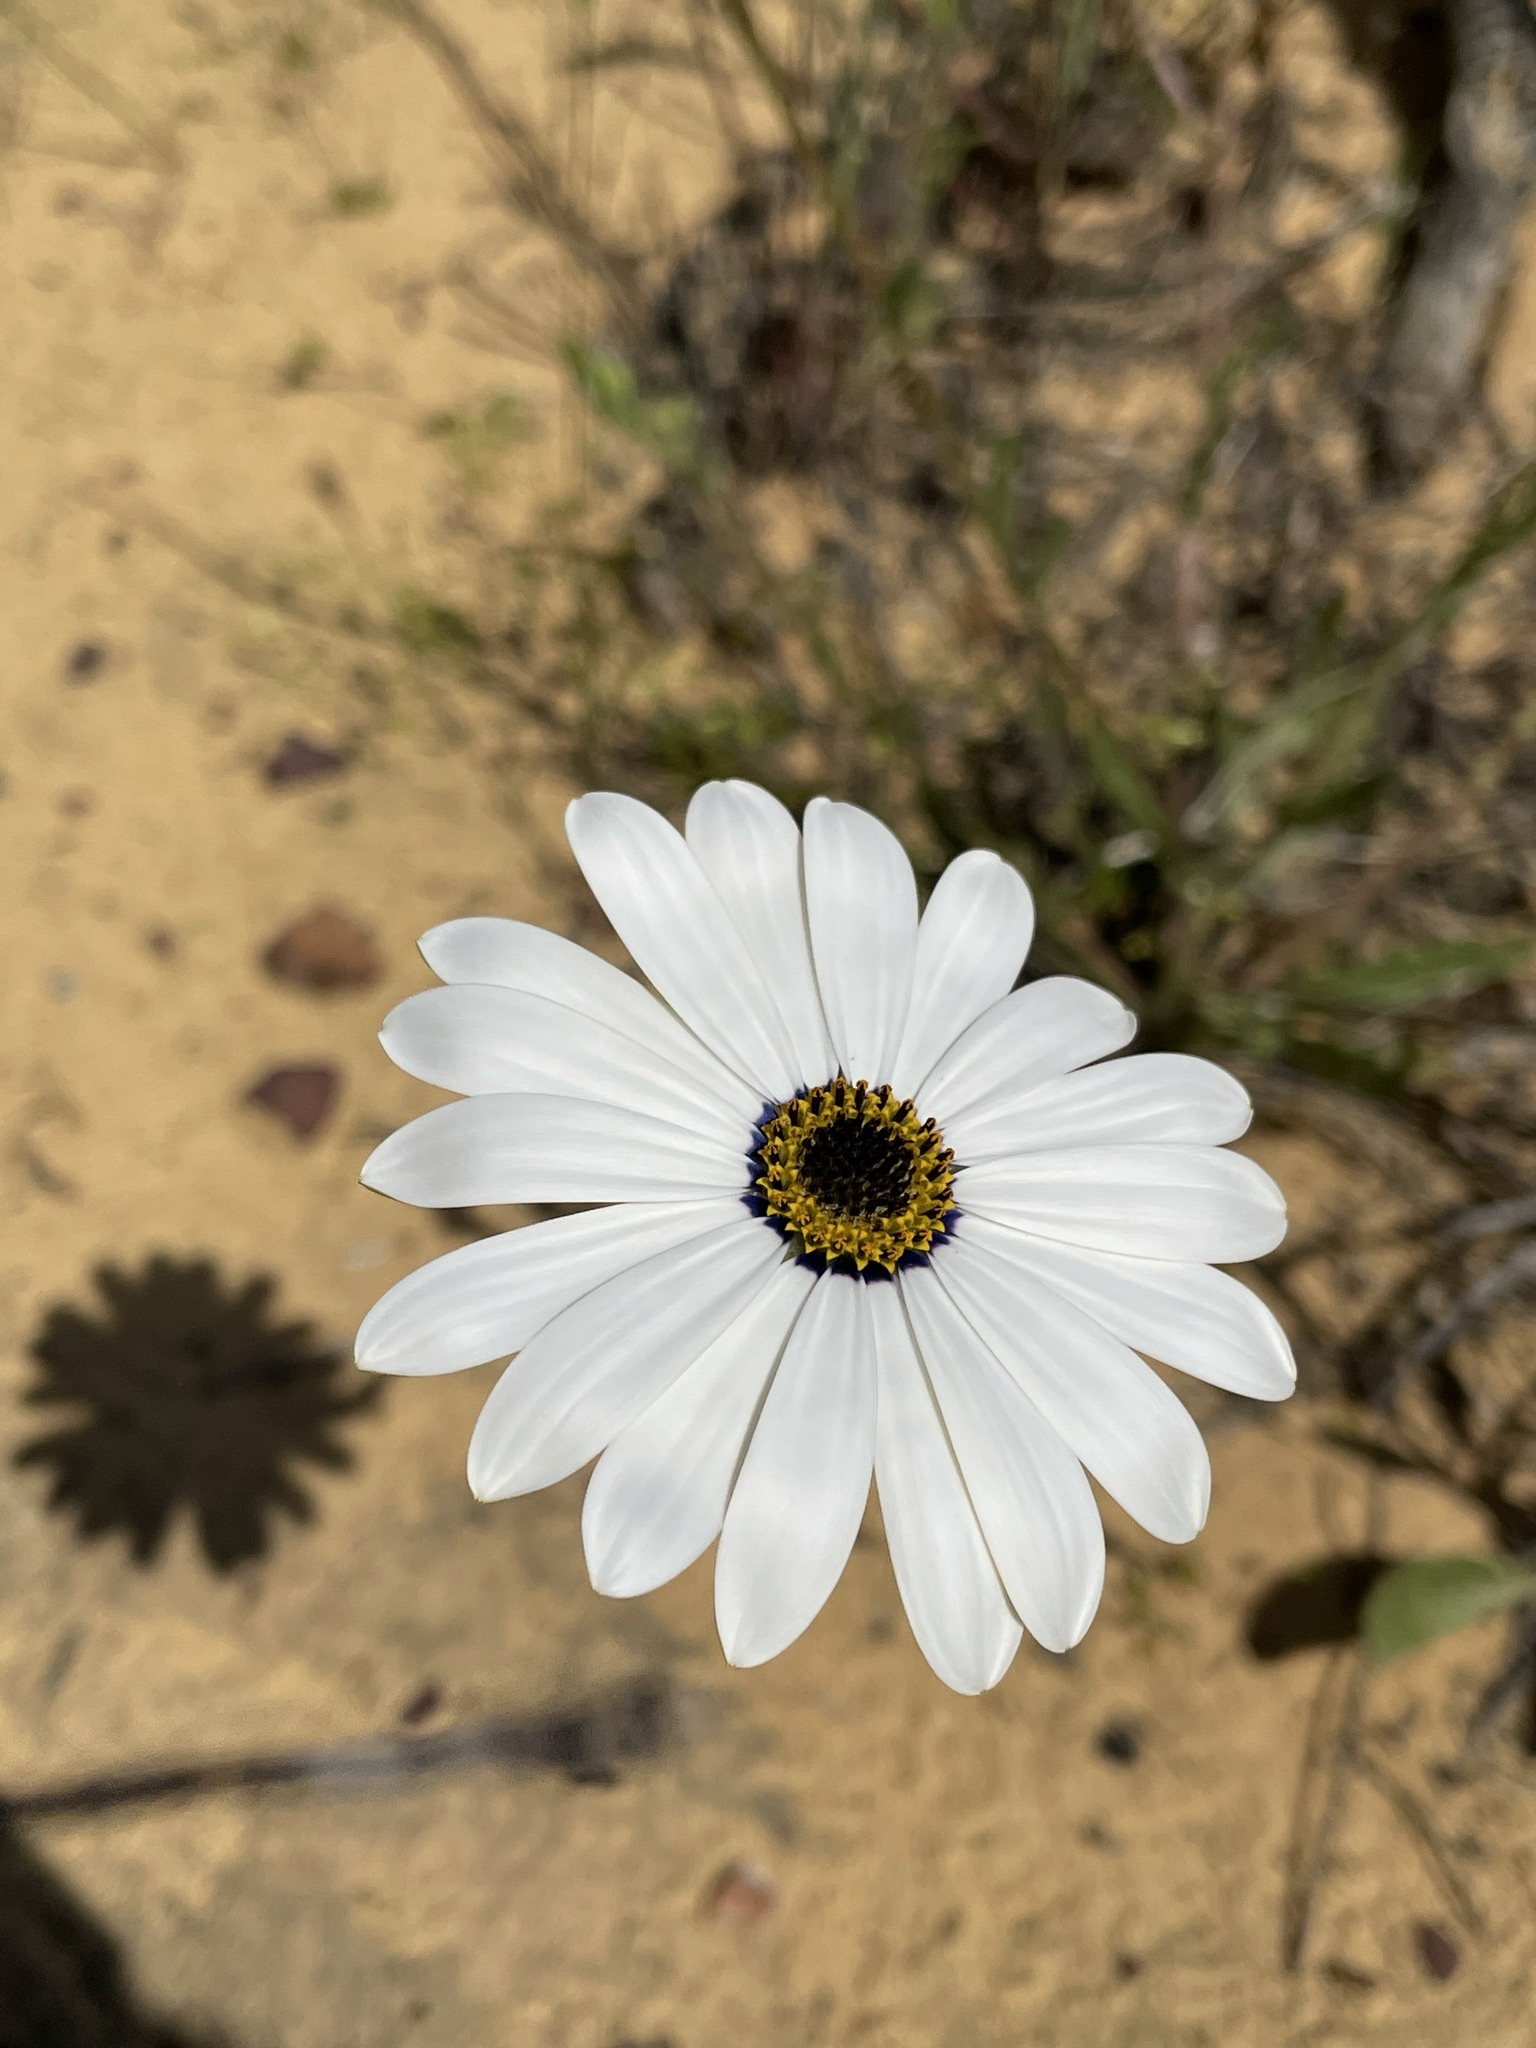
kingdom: Plantae
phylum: Tracheophyta
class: Magnoliopsida
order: Asterales
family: Asteraceae
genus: Dimorphotheca
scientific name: Dimorphotheca pluvialis
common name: Weather prophet
